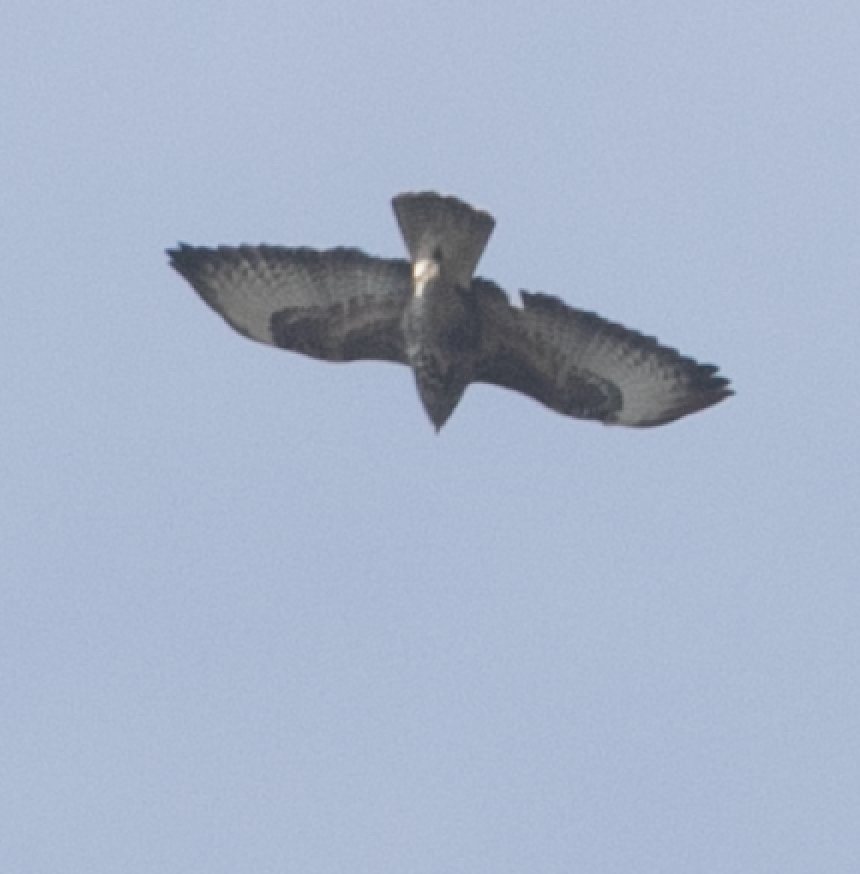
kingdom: Animalia
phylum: Chordata
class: Aves
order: Accipitriformes
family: Accipitridae
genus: Buteo
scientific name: Buteo buteo
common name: Common buzzard
